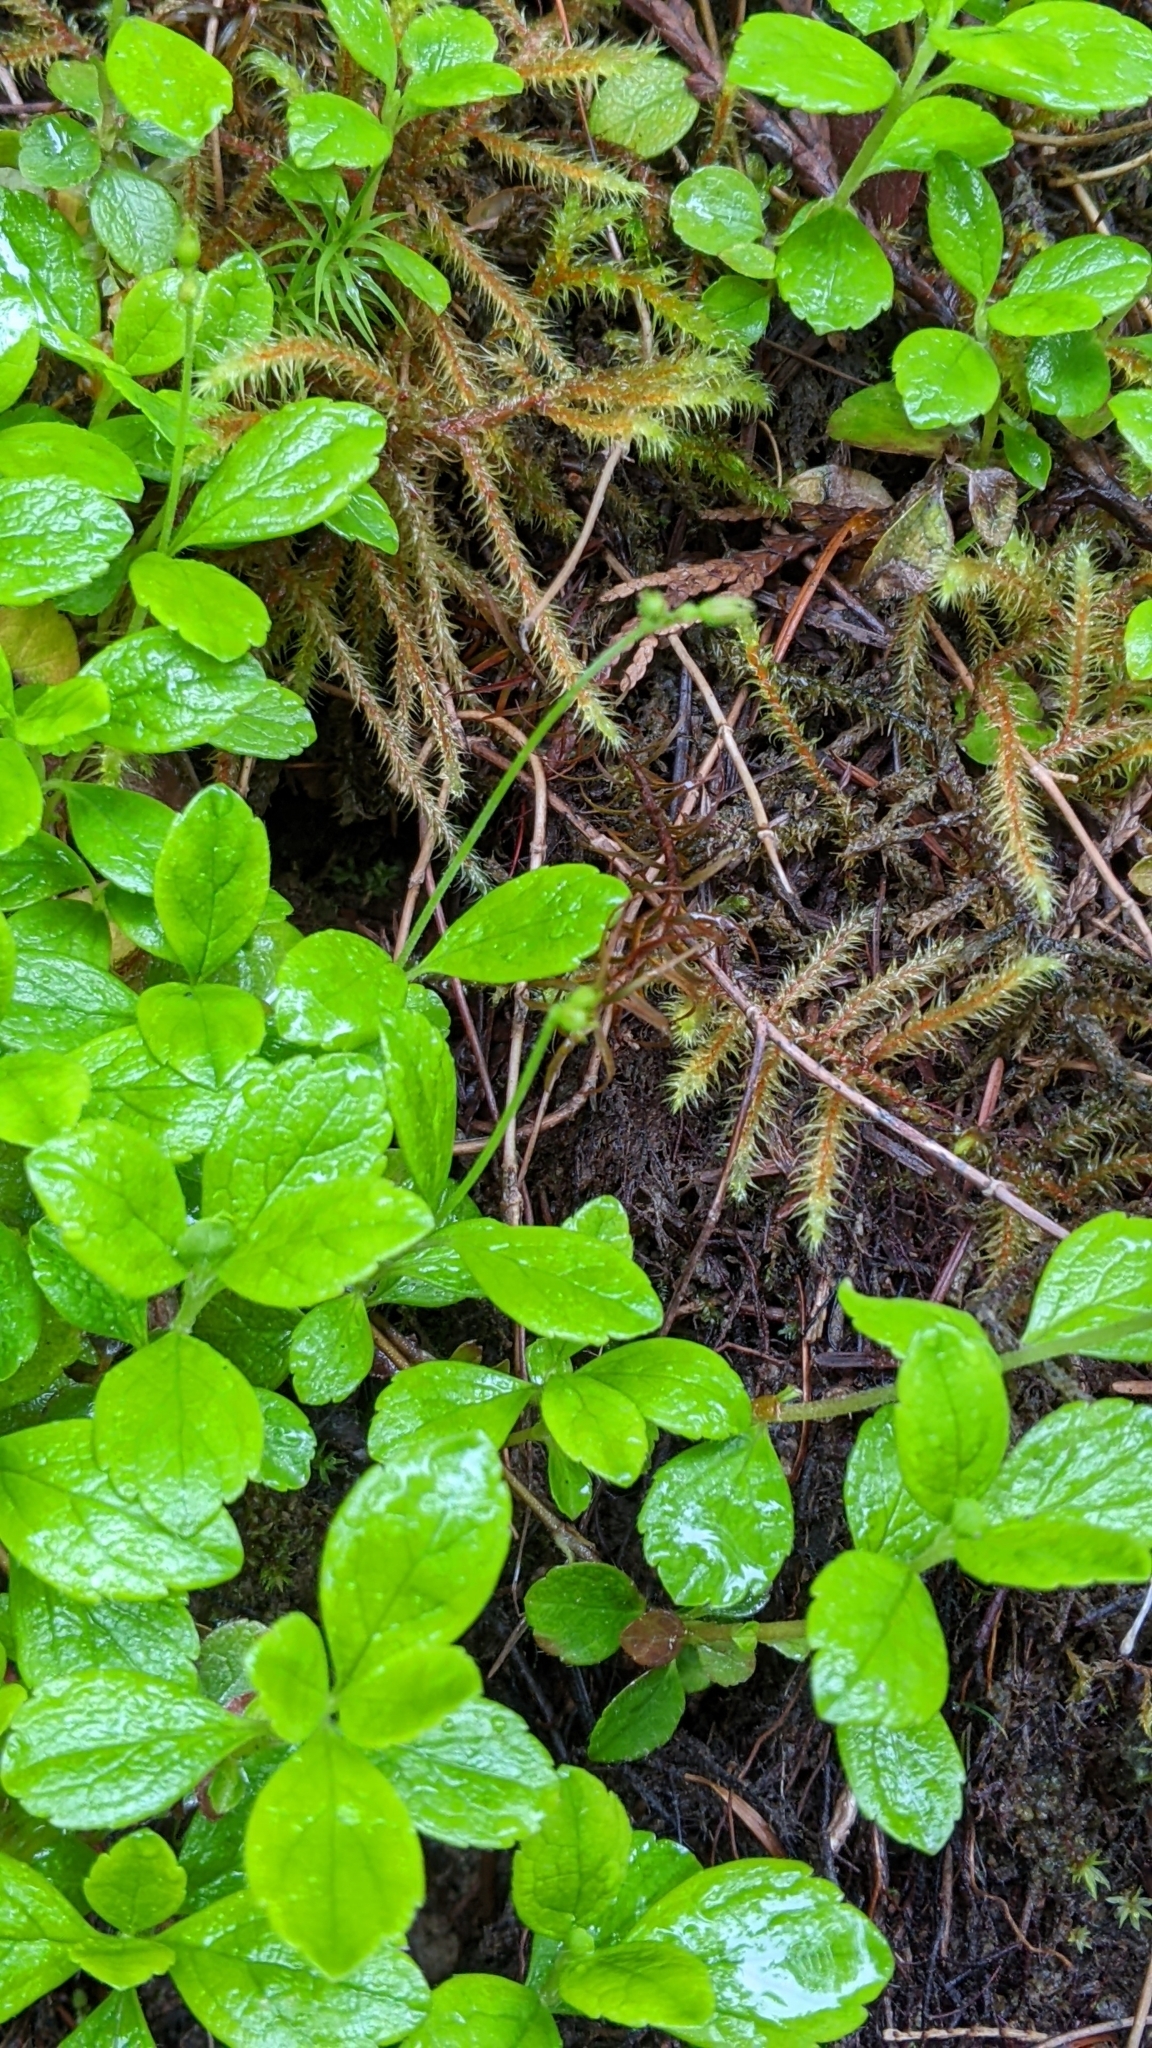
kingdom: Plantae
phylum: Tracheophyta
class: Magnoliopsida
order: Dipsacales
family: Caprifoliaceae
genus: Linnaea
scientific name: Linnaea borealis
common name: Twinflower
